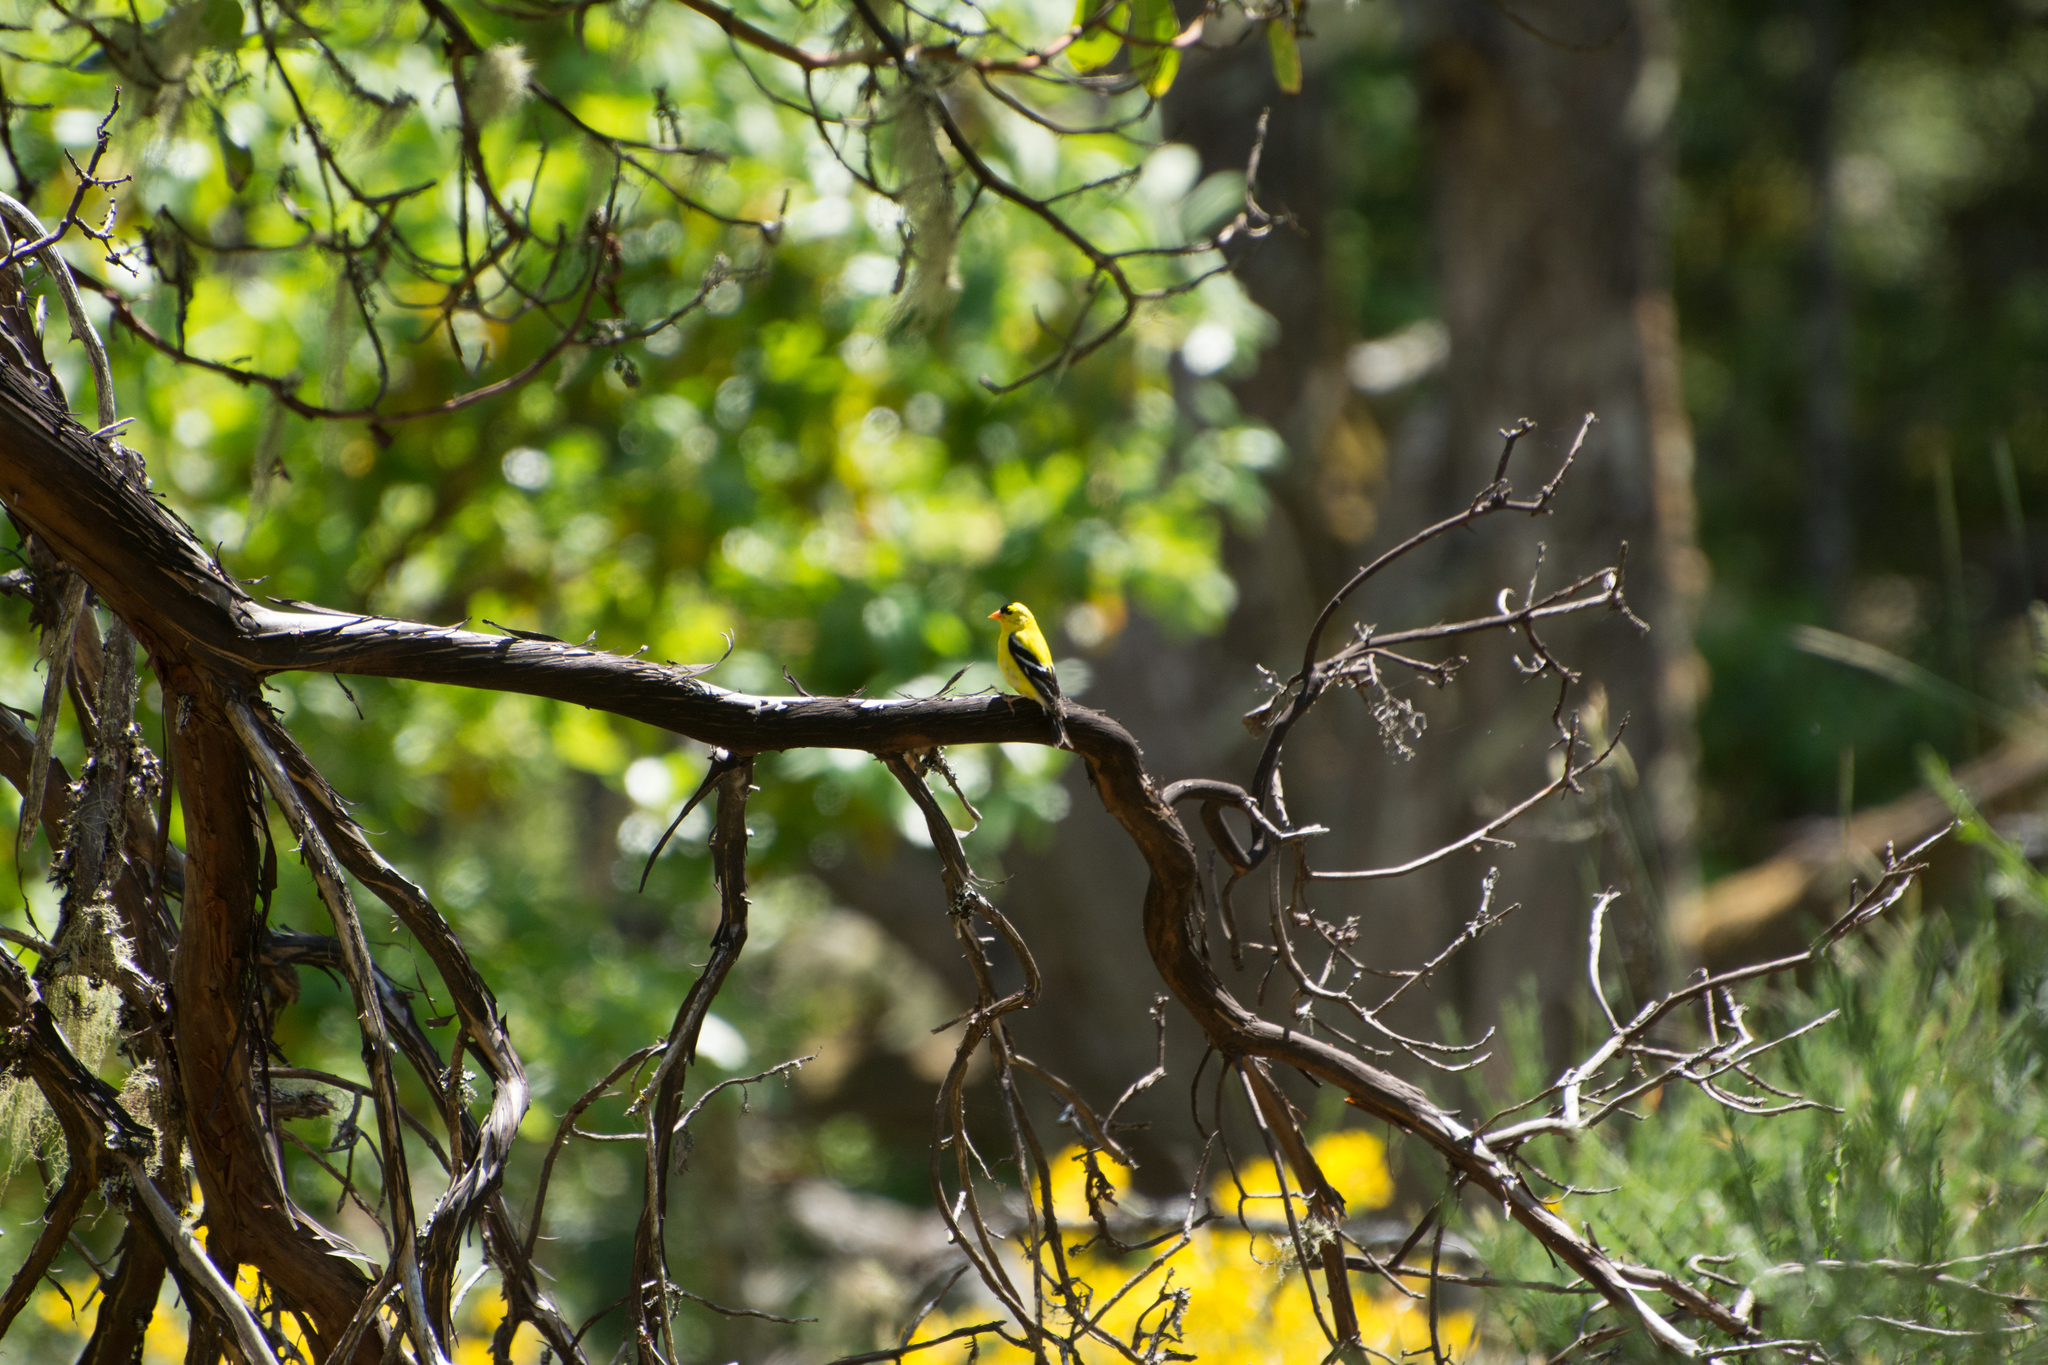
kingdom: Animalia
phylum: Chordata
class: Aves
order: Passeriformes
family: Fringillidae
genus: Spinus
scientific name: Spinus tristis
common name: American goldfinch
